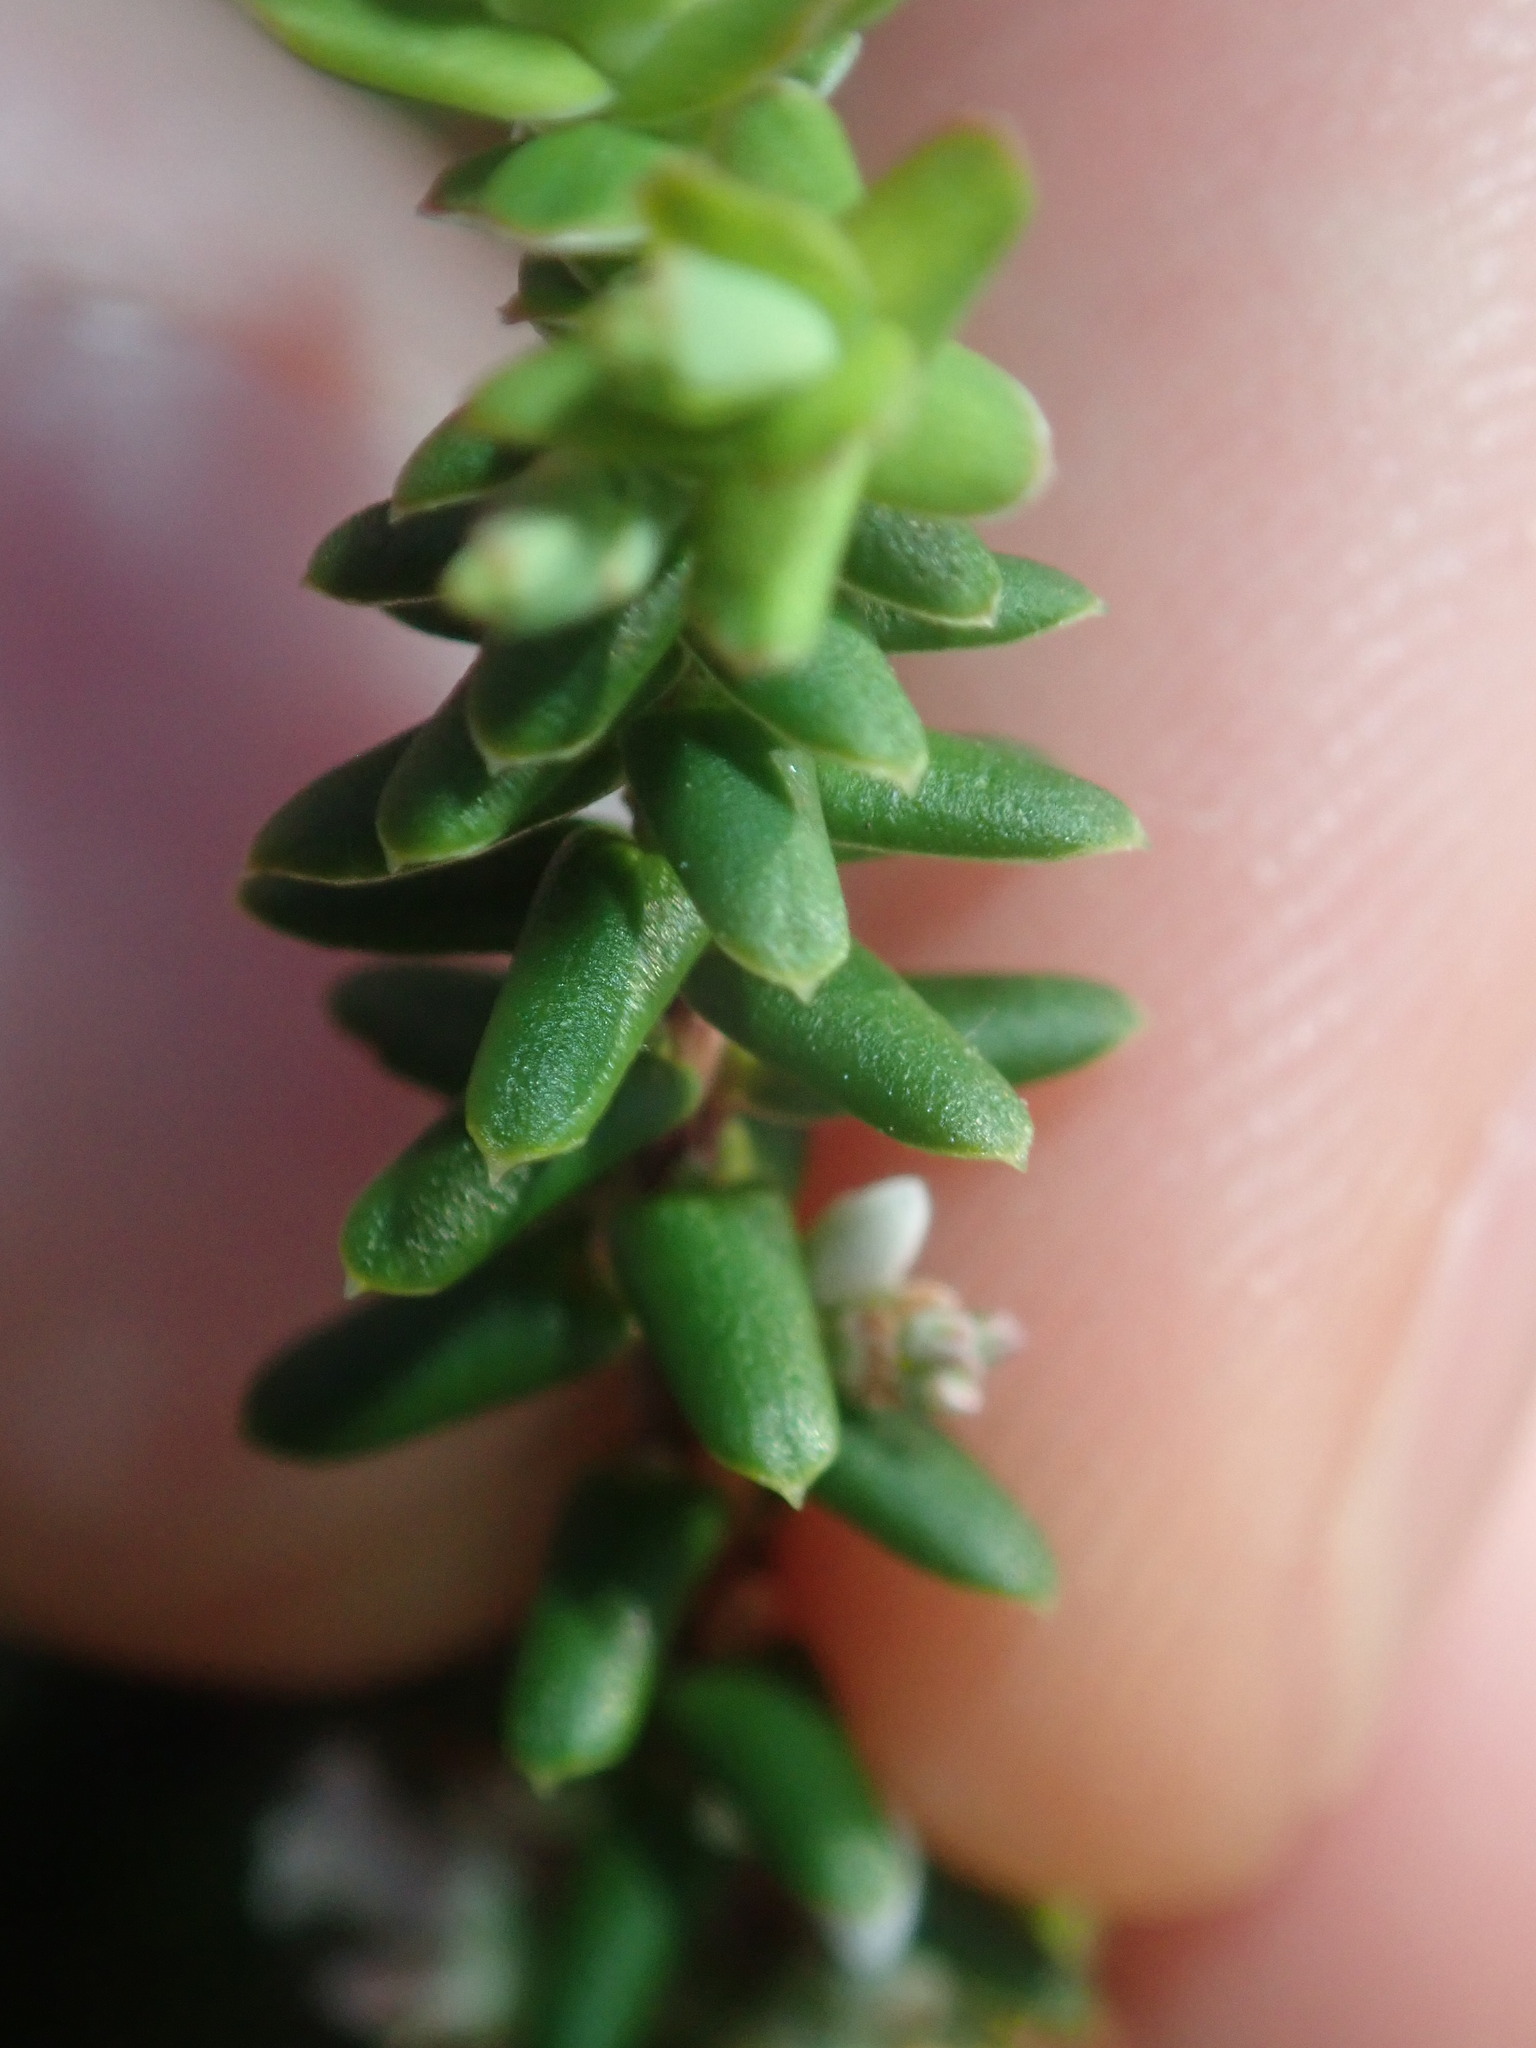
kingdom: Plantae
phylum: Tracheophyta
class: Magnoliopsida
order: Ericales
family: Ericaceae
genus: Styphelia
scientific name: Styphelia ericoides
